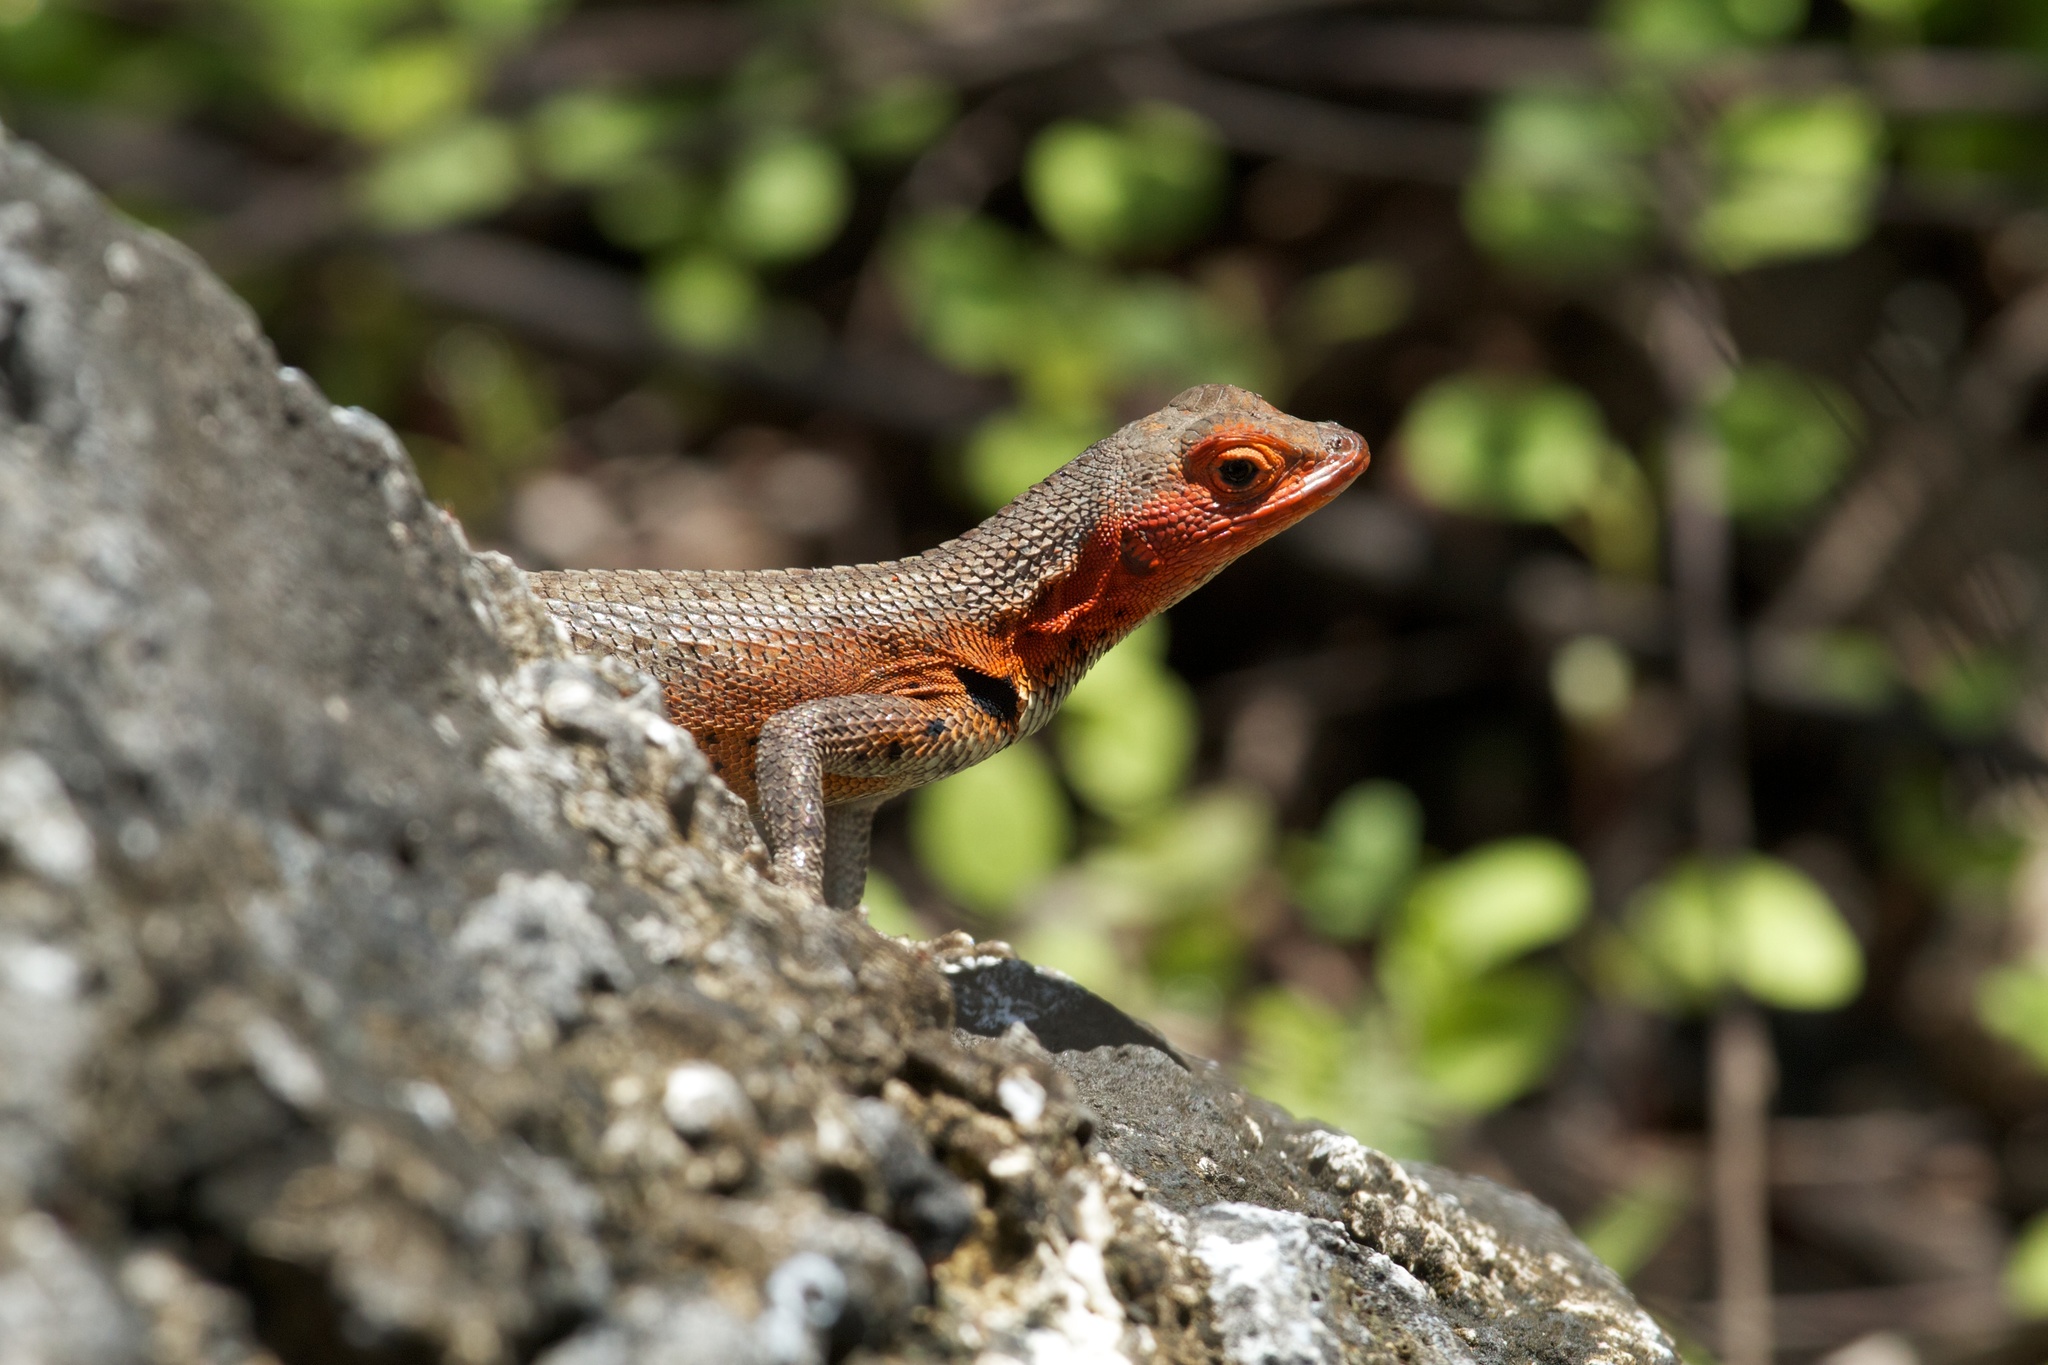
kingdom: Animalia
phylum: Chordata
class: Squamata
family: Tropiduridae
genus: Microlophus
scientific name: Microlophus albemarlensis
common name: Galapagos lava lizard
